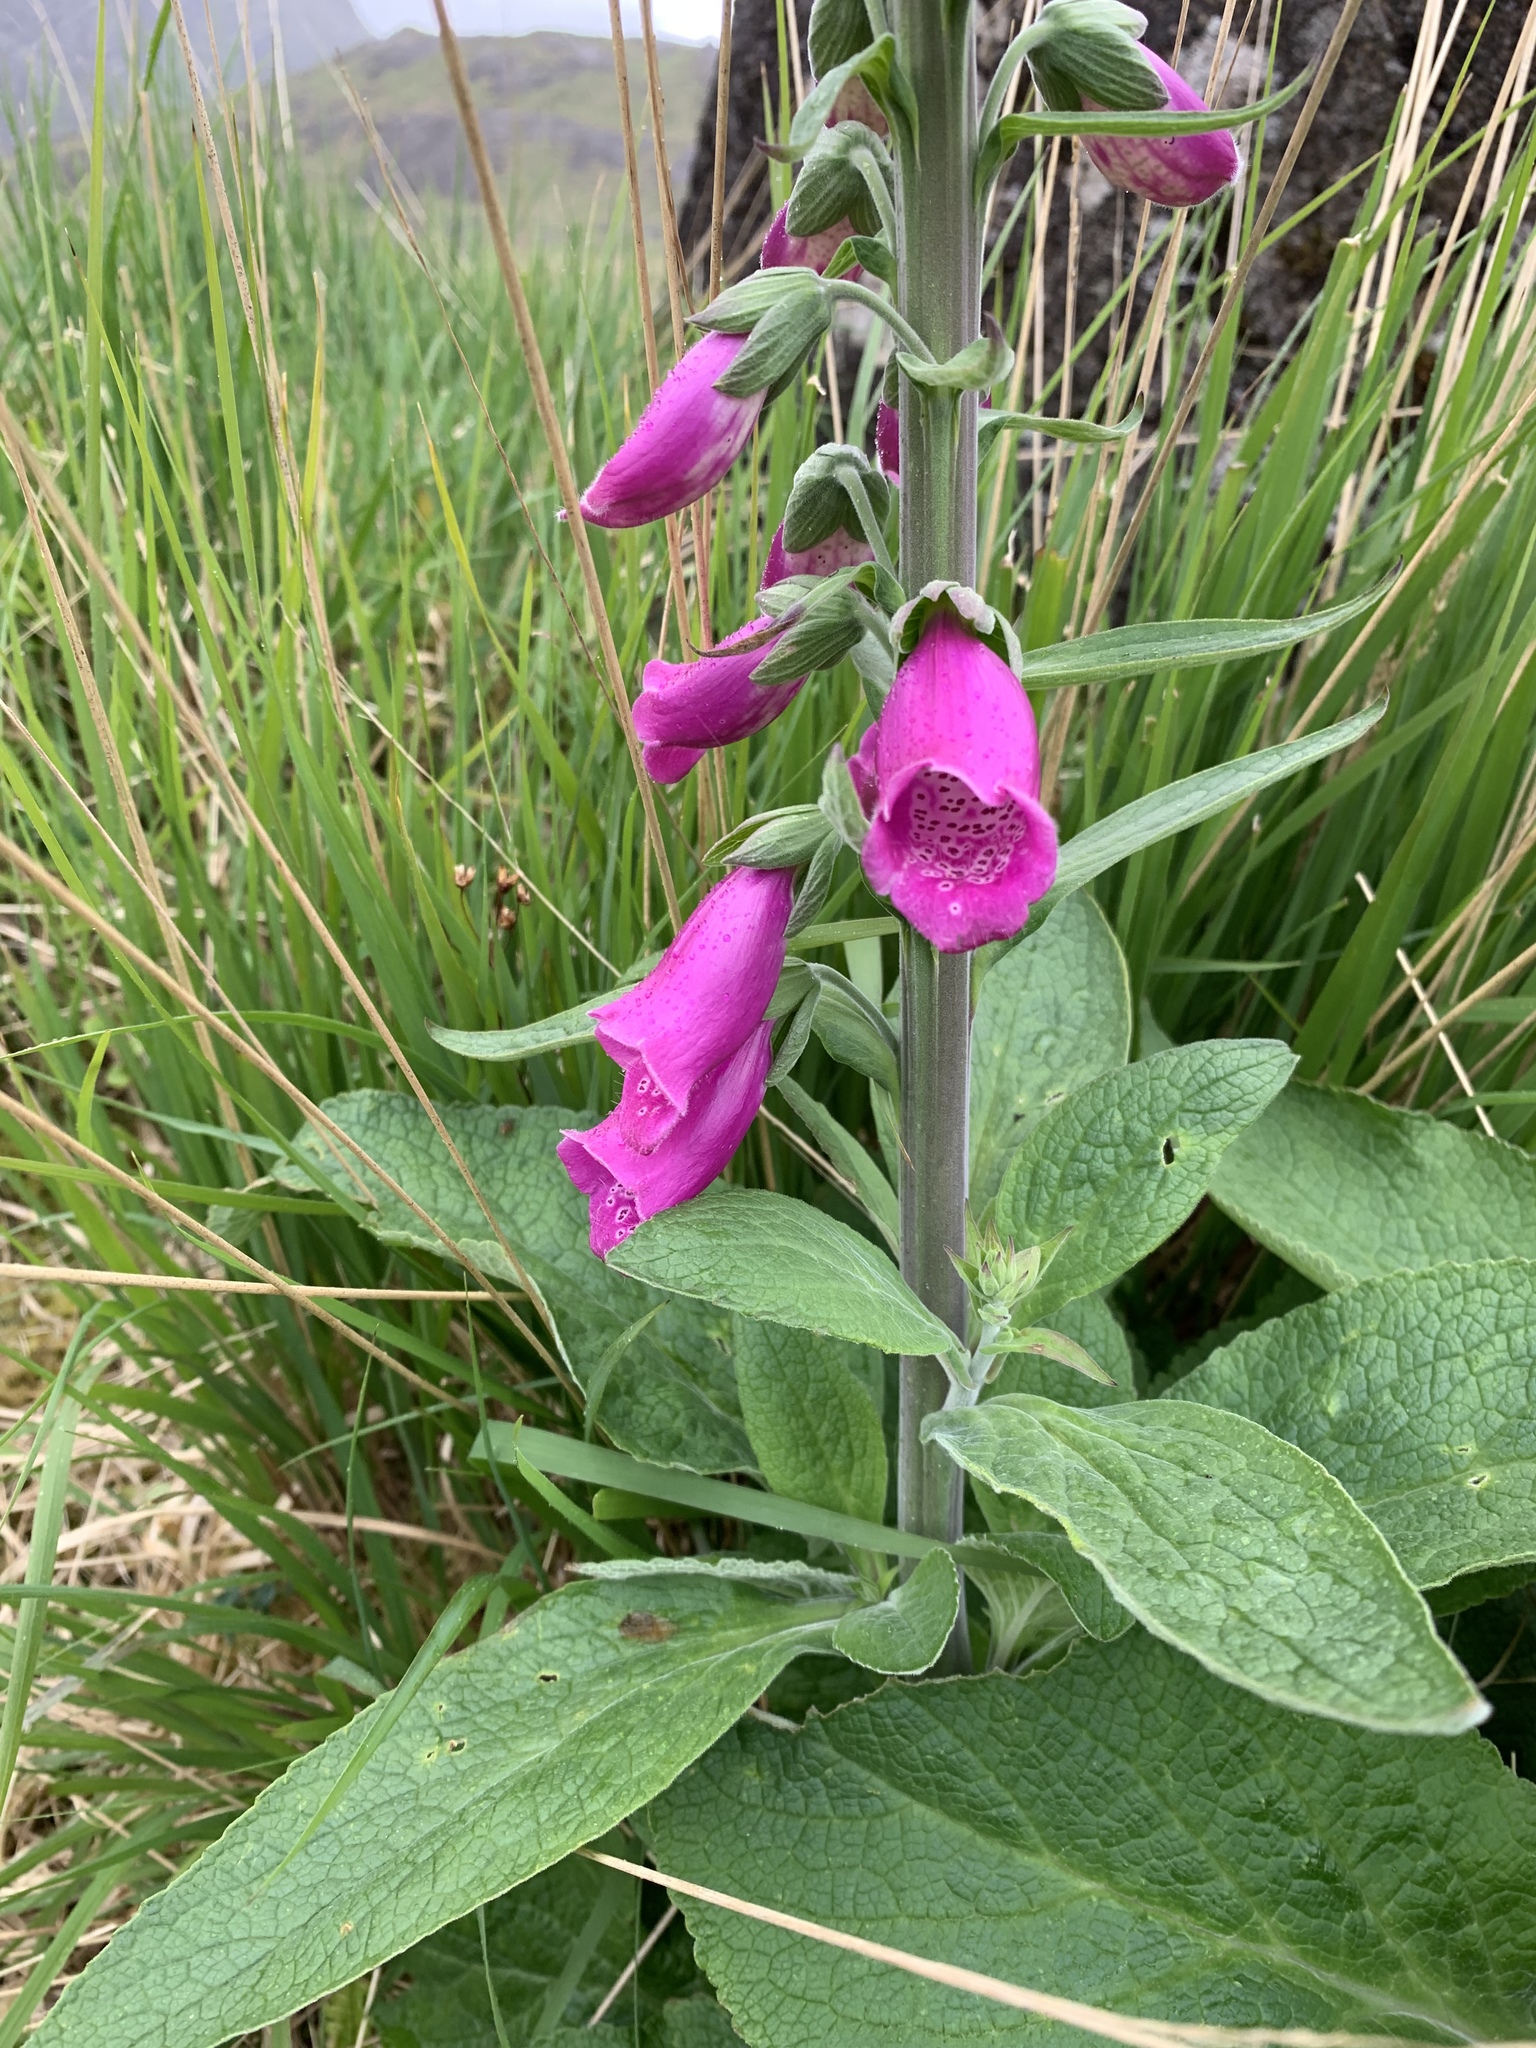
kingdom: Plantae
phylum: Tracheophyta
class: Magnoliopsida
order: Lamiales
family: Plantaginaceae
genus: Digitalis
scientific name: Digitalis purpurea
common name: Foxglove
